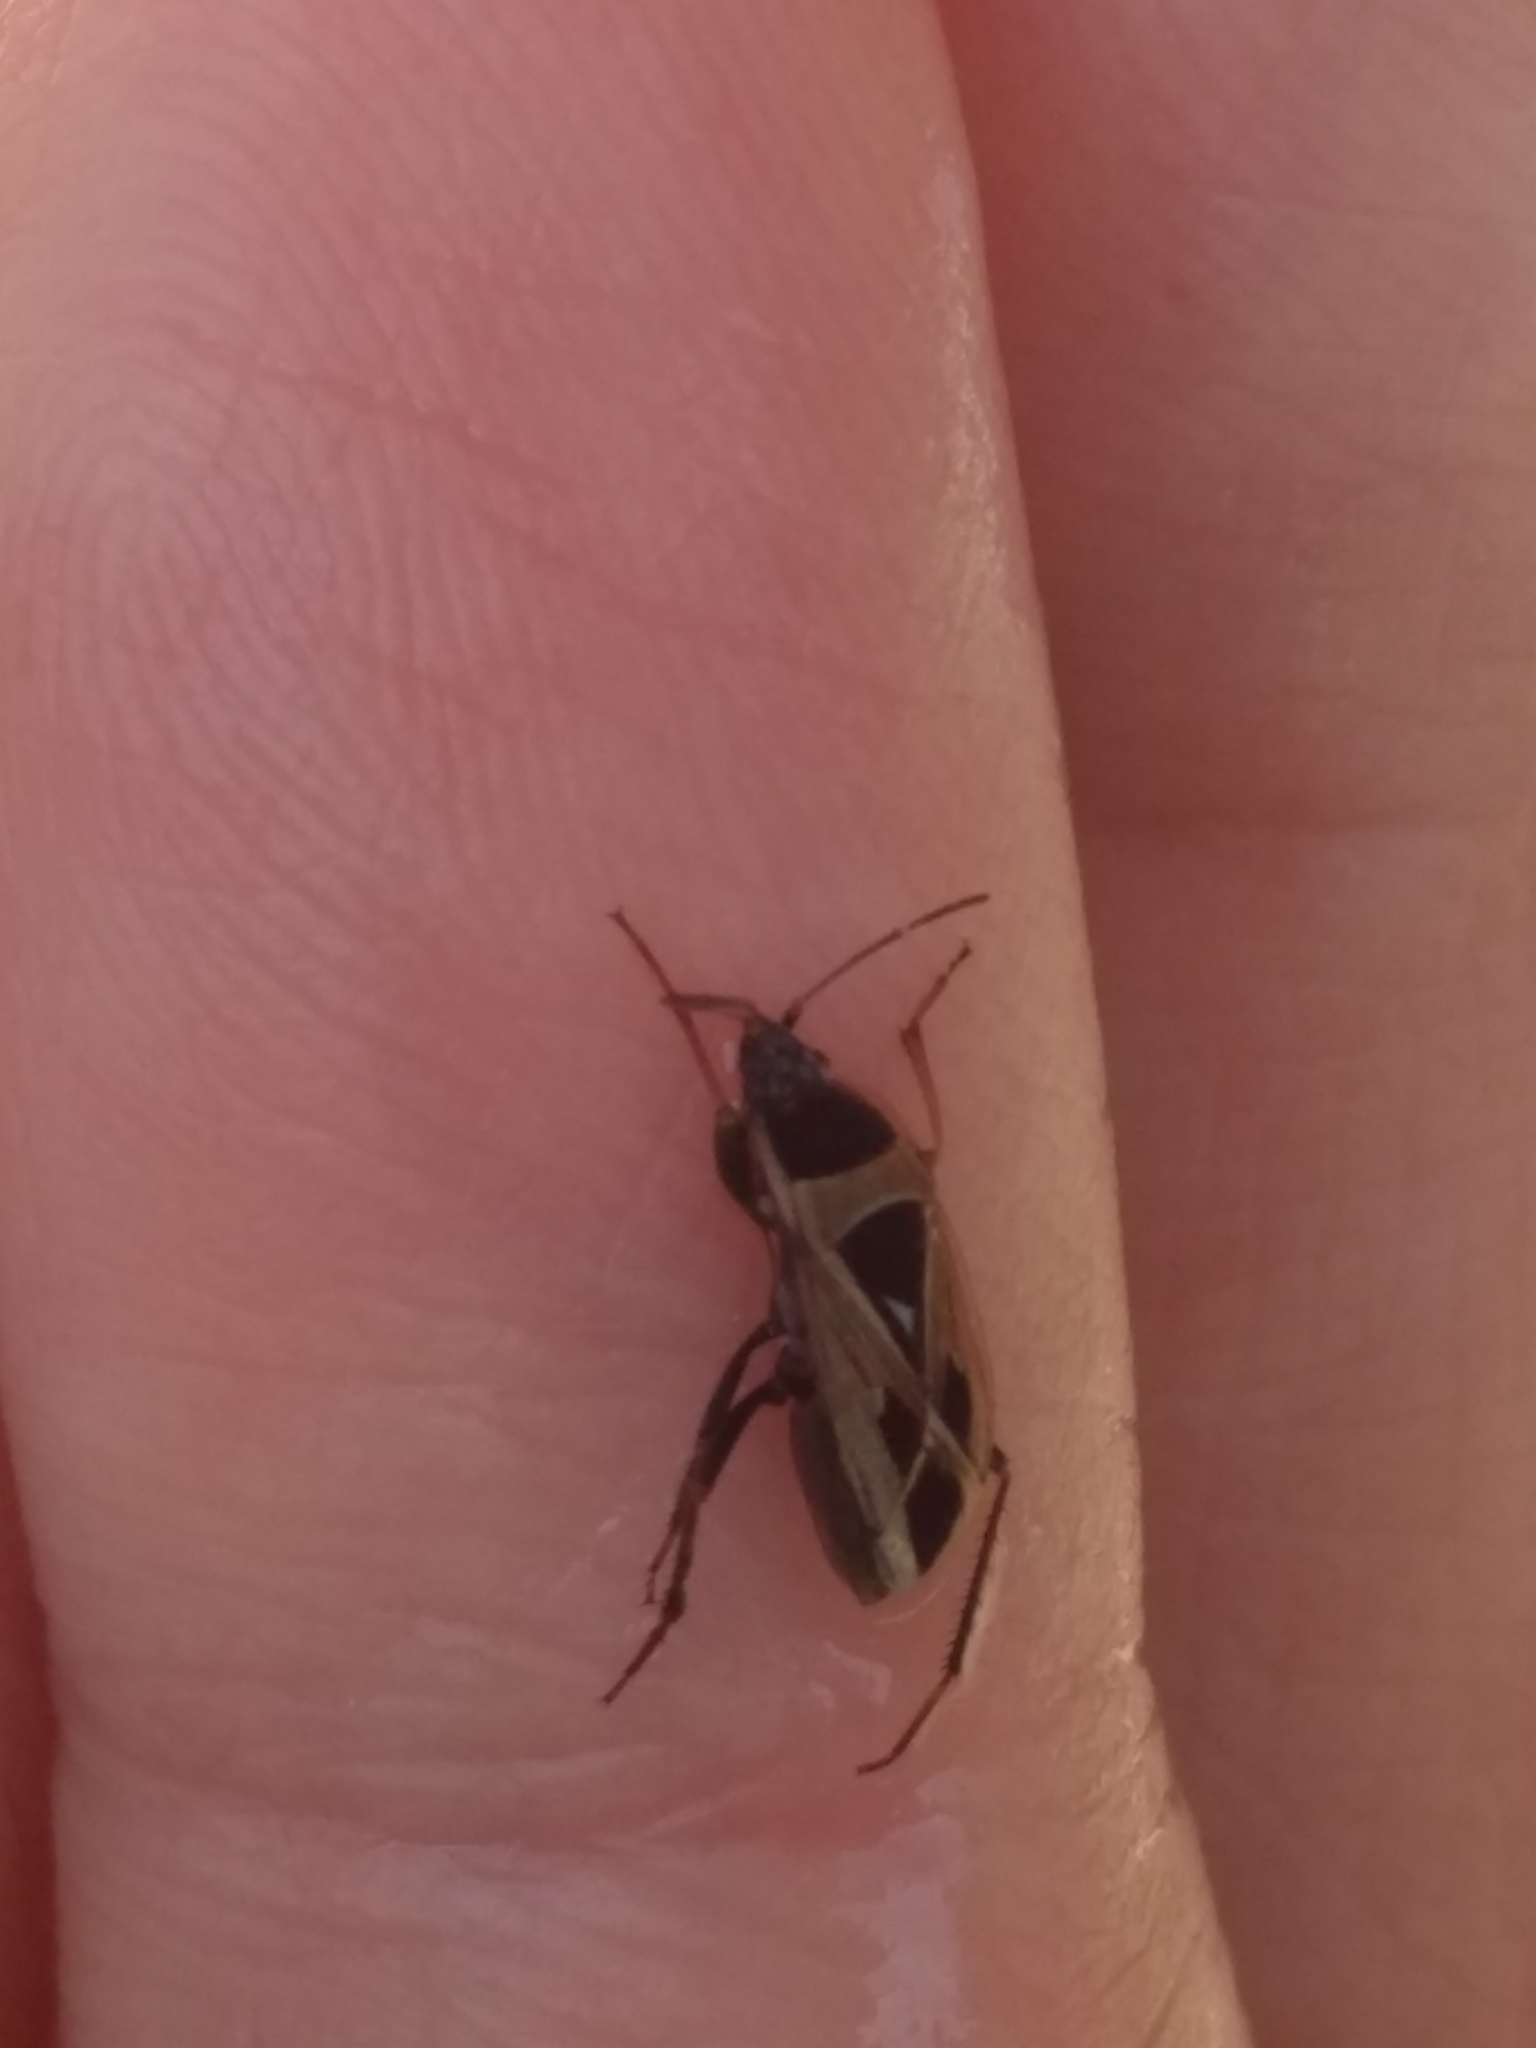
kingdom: Animalia
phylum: Arthropoda
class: Insecta
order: Hemiptera
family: Rhyparochromidae
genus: Xanthochilus
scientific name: Xanthochilus saturnius
